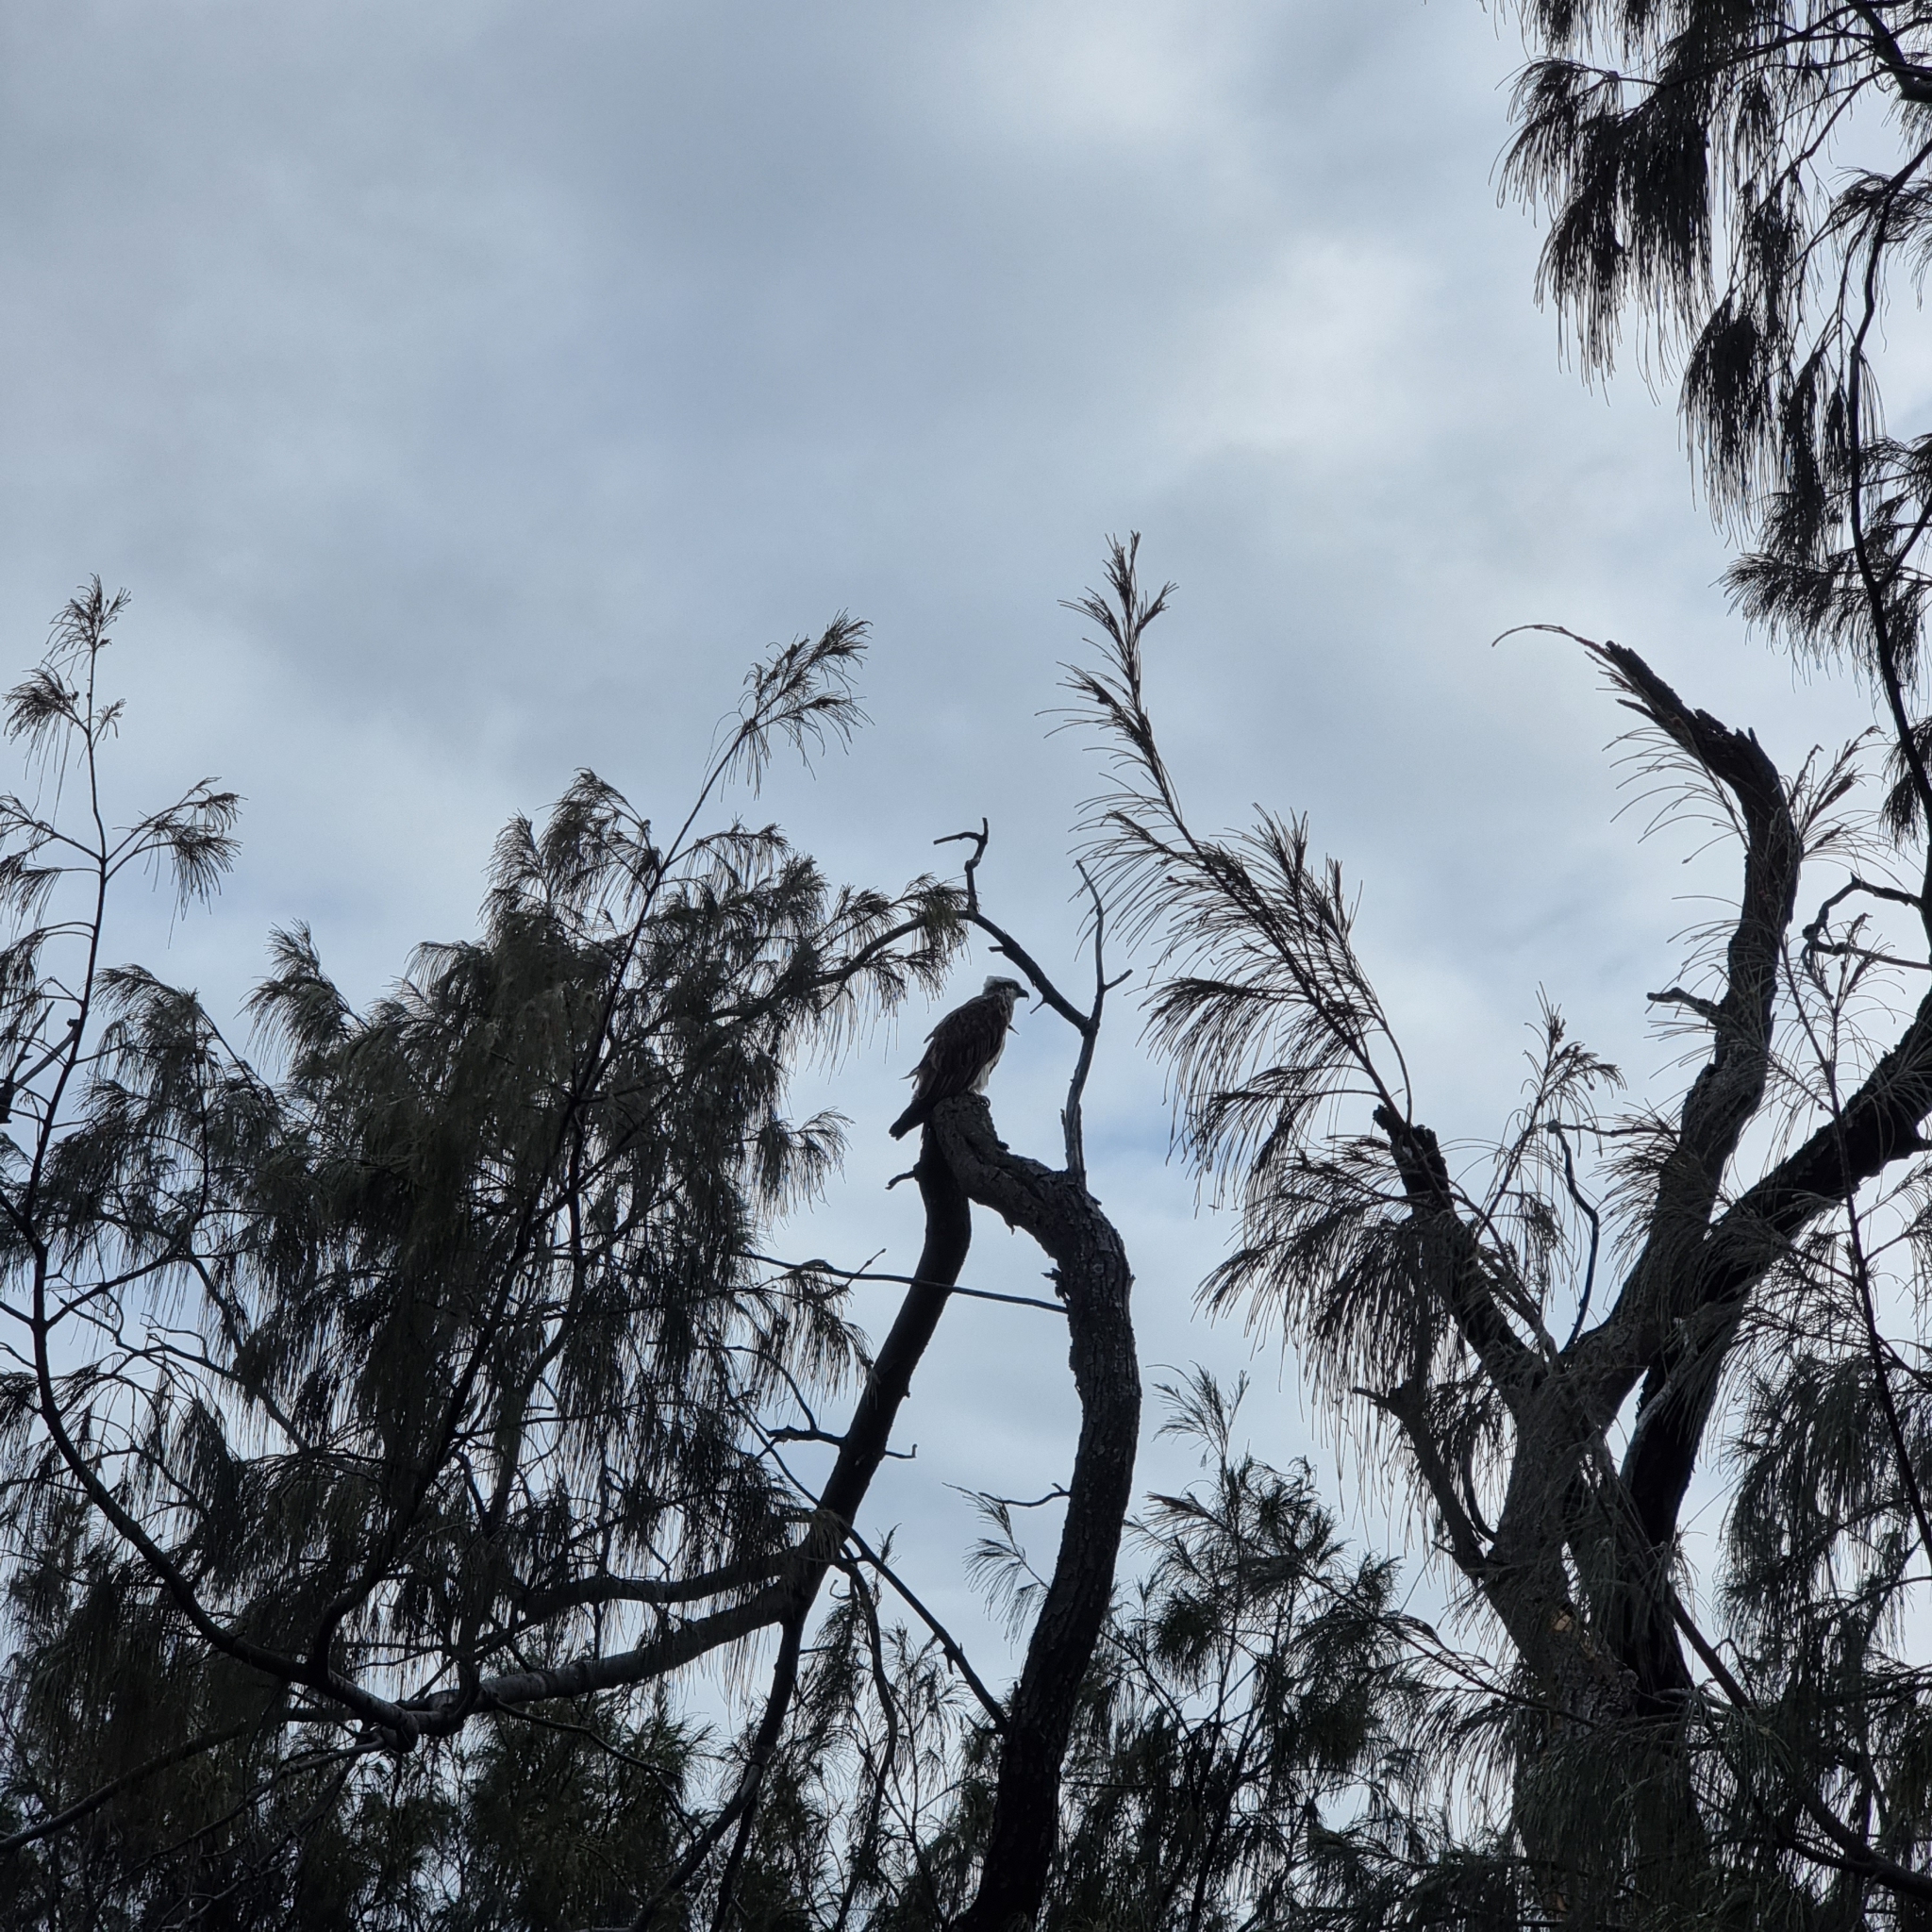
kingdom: Animalia
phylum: Chordata
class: Aves
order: Accipitriformes
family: Pandionidae
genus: Pandion
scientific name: Pandion haliaetus
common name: Osprey
